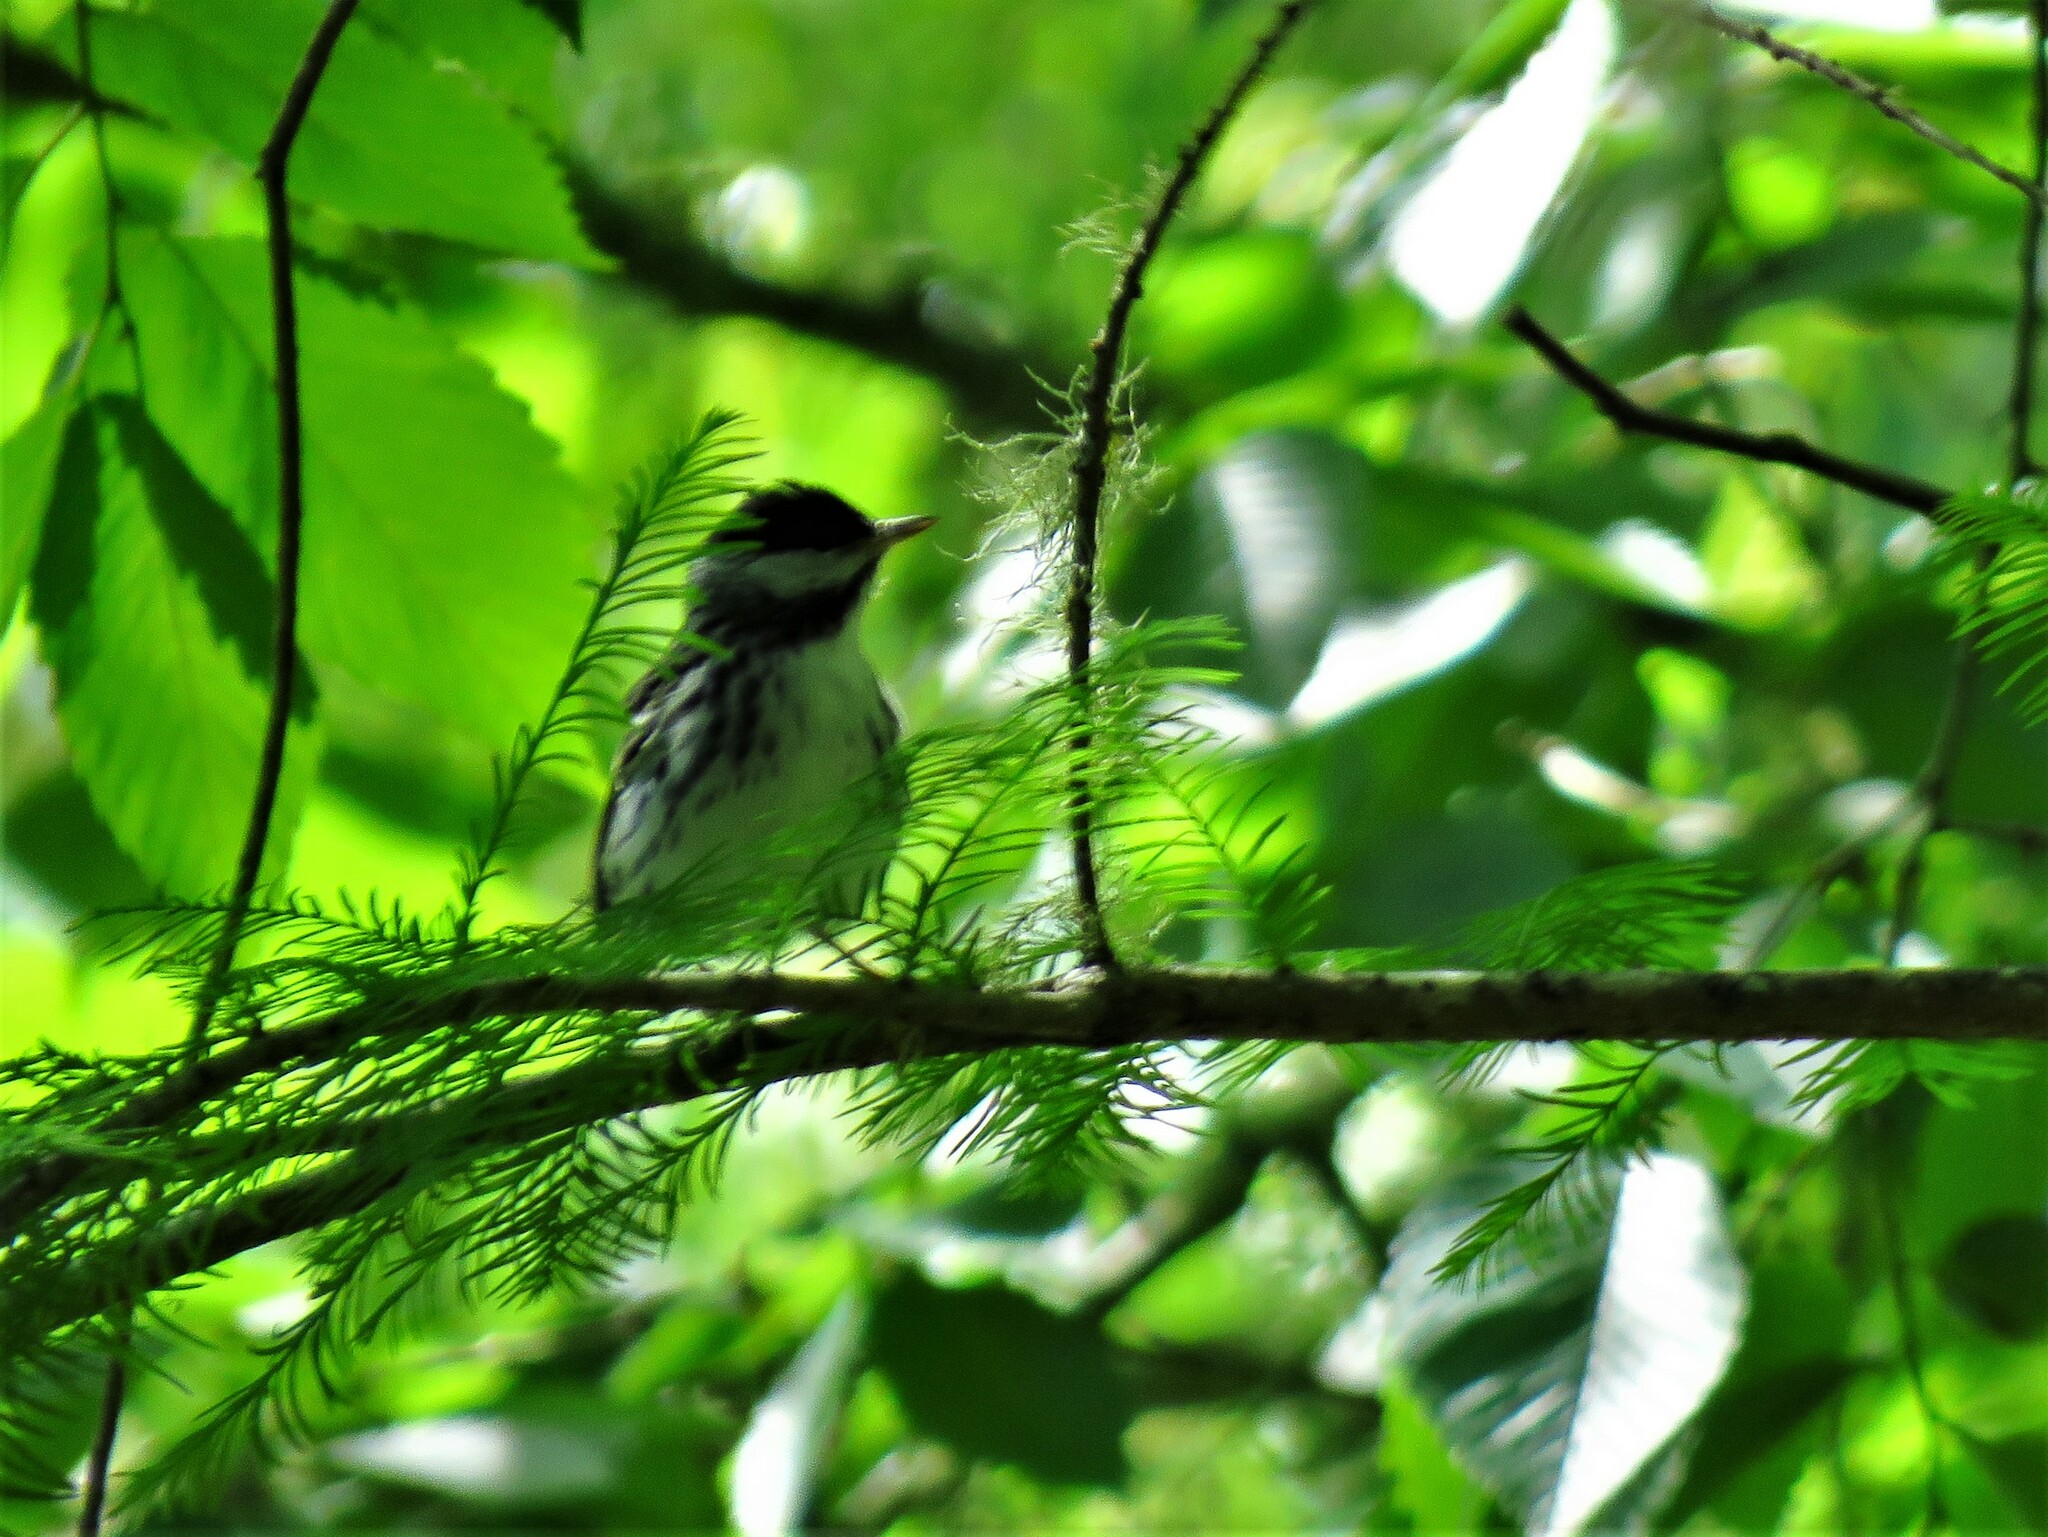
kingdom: Animalia
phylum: Chordata
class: Aves
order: Passeriformes
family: Parulidae
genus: Setophaga
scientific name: Setophaga striata
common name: Blackpoll warbler
